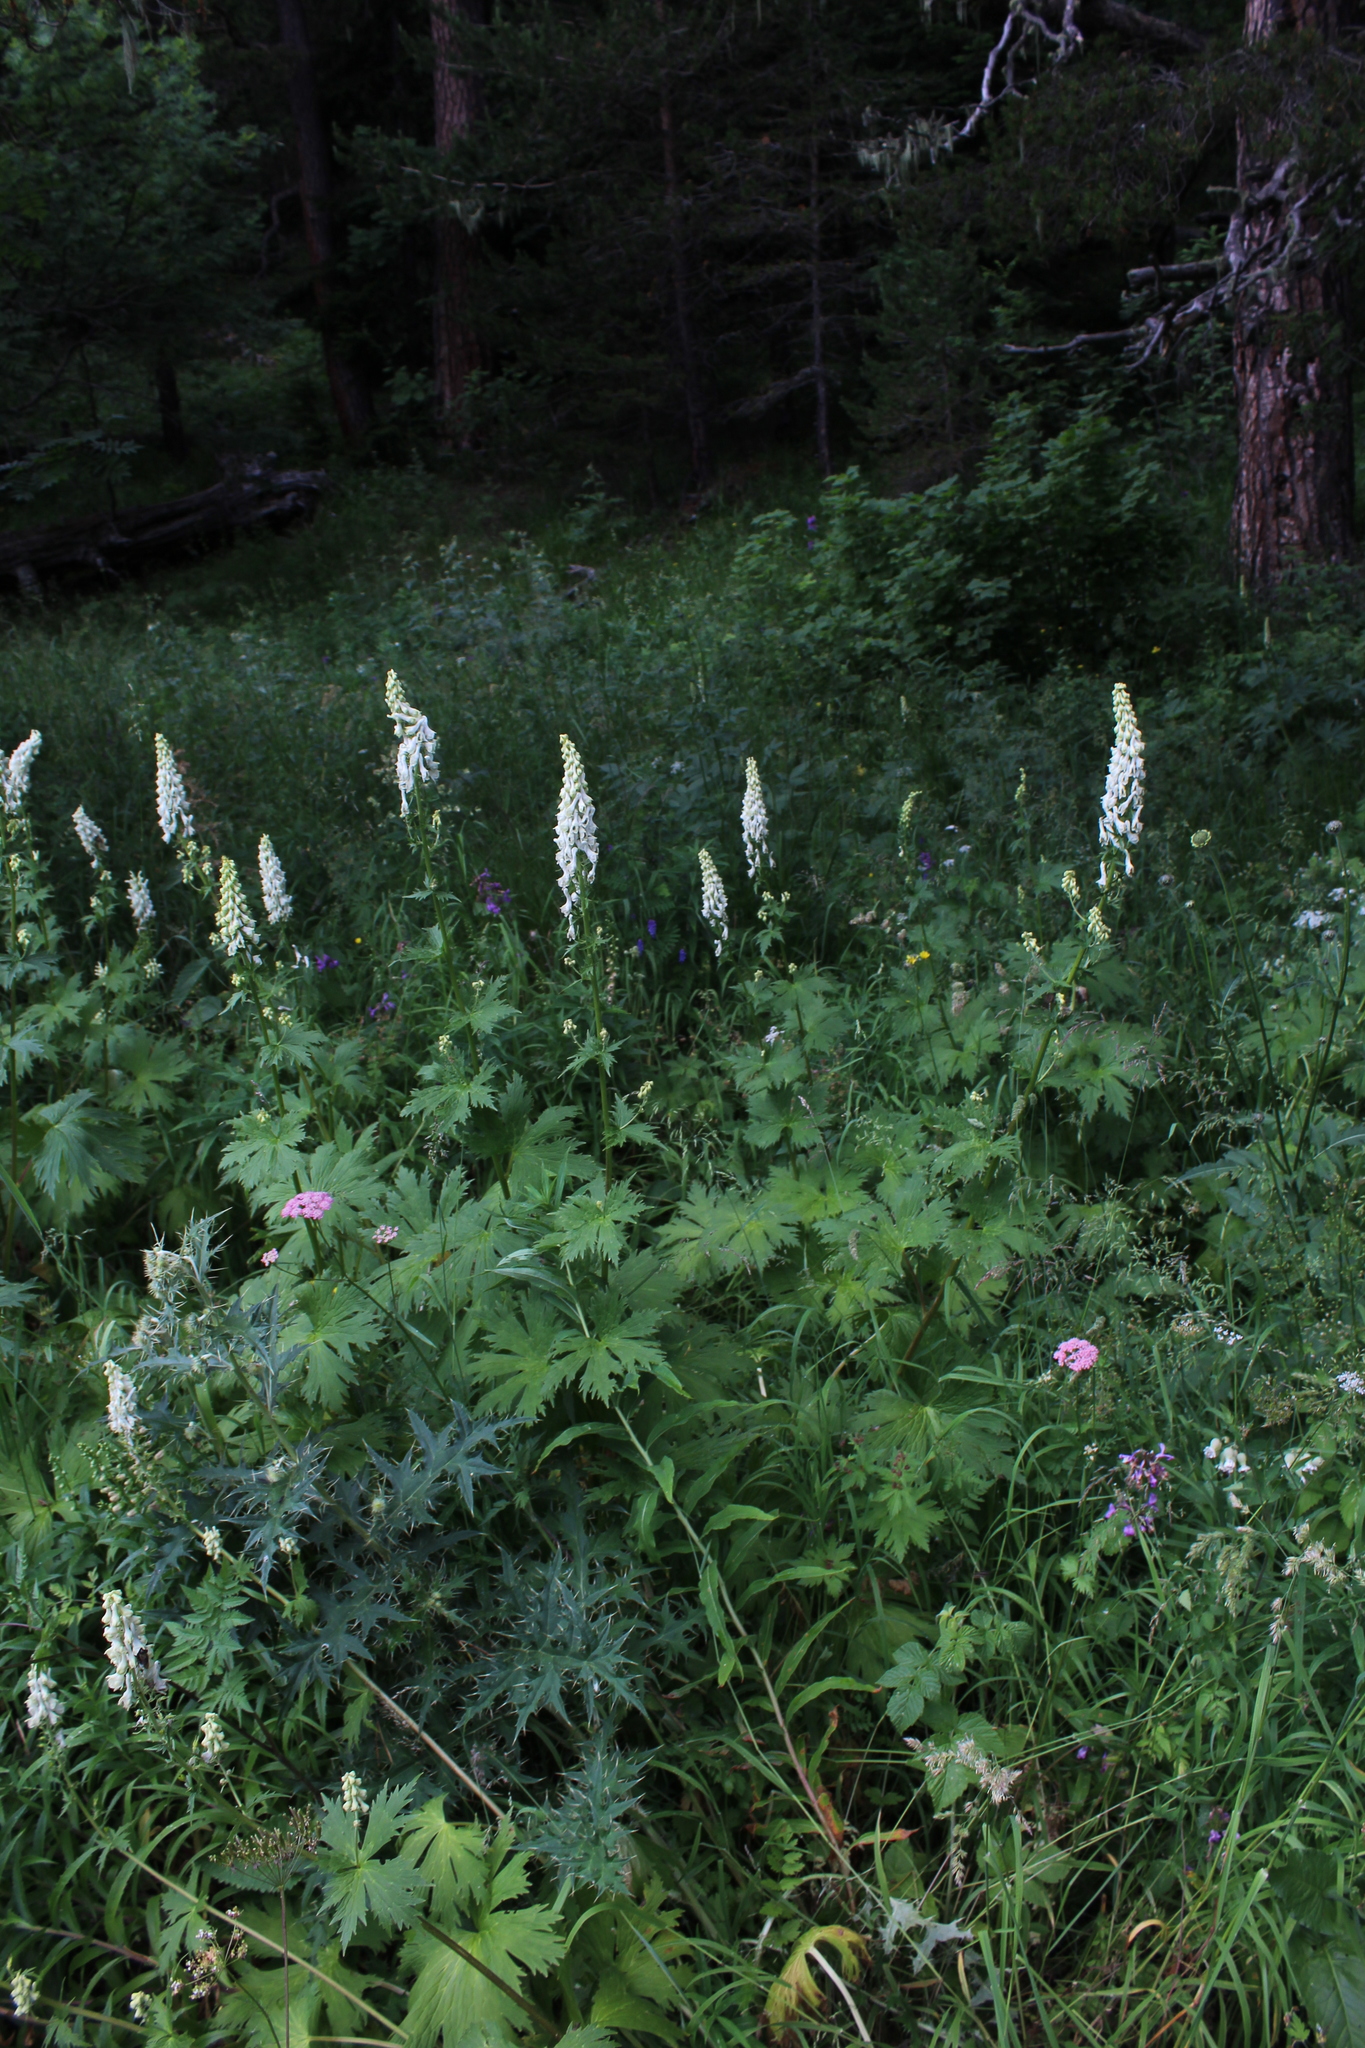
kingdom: Plantae
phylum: Tracheophyta
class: Magnoliopsida
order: Ranunculales
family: Ranunculaceae
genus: Aconitum
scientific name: Aconitum orientale
